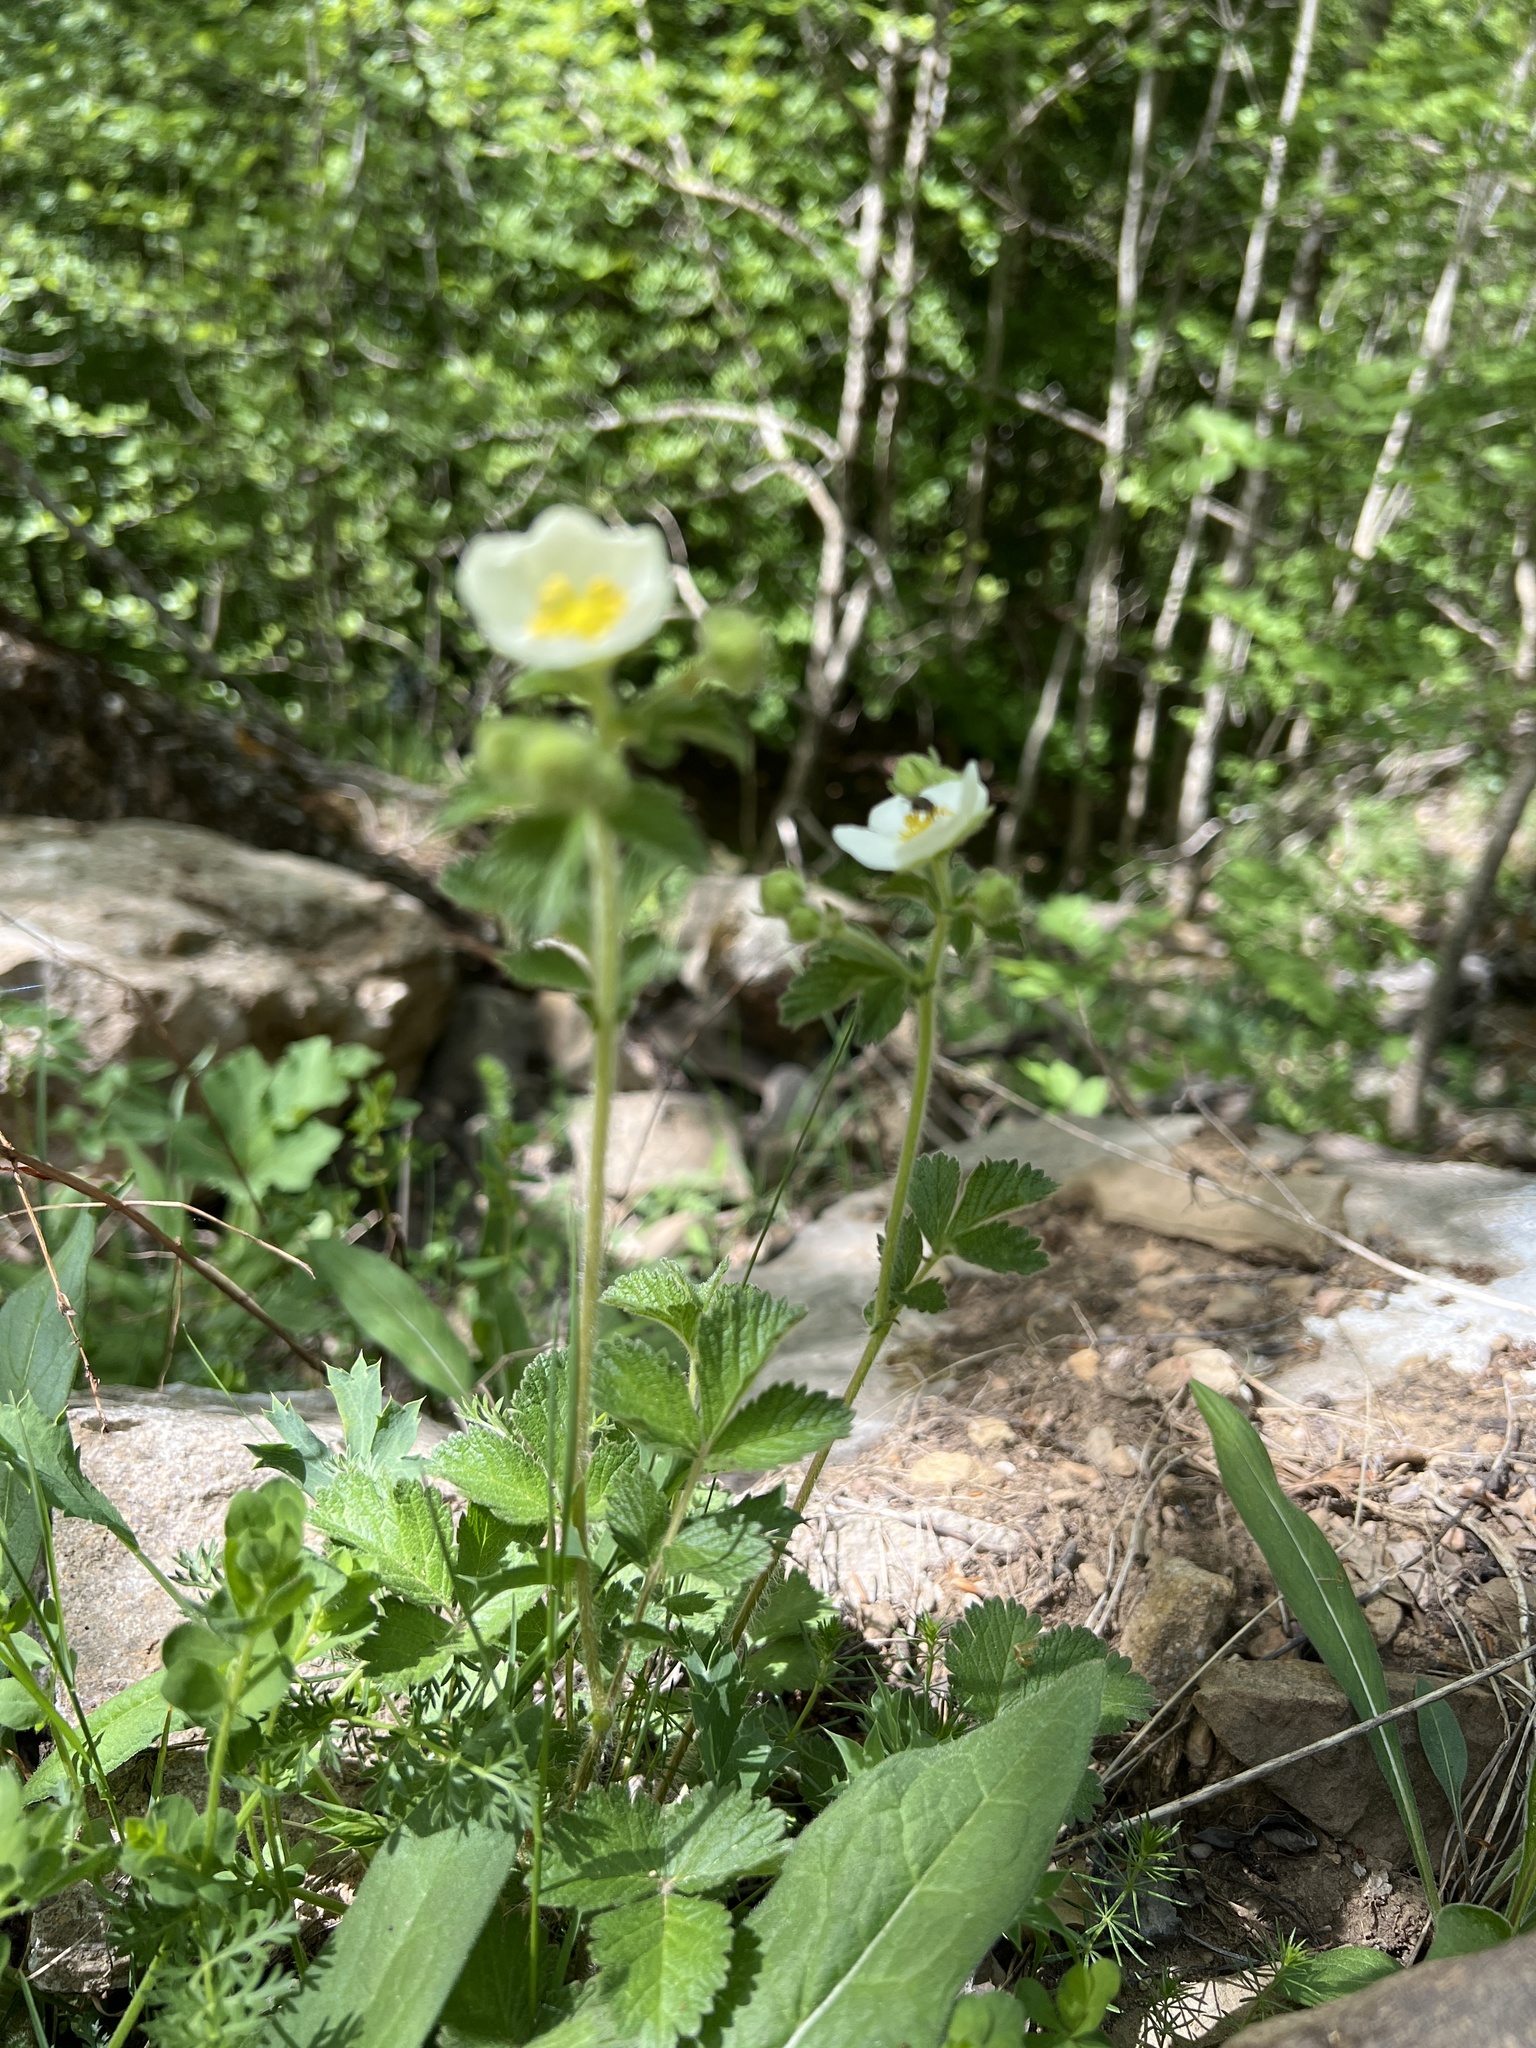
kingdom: Plantae
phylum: Tracheophyta
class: Magnoliopsida
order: Rosales
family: Rosaceae
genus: Drymocallis
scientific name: Drymocallis rupestris
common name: Rock cinquefoil
